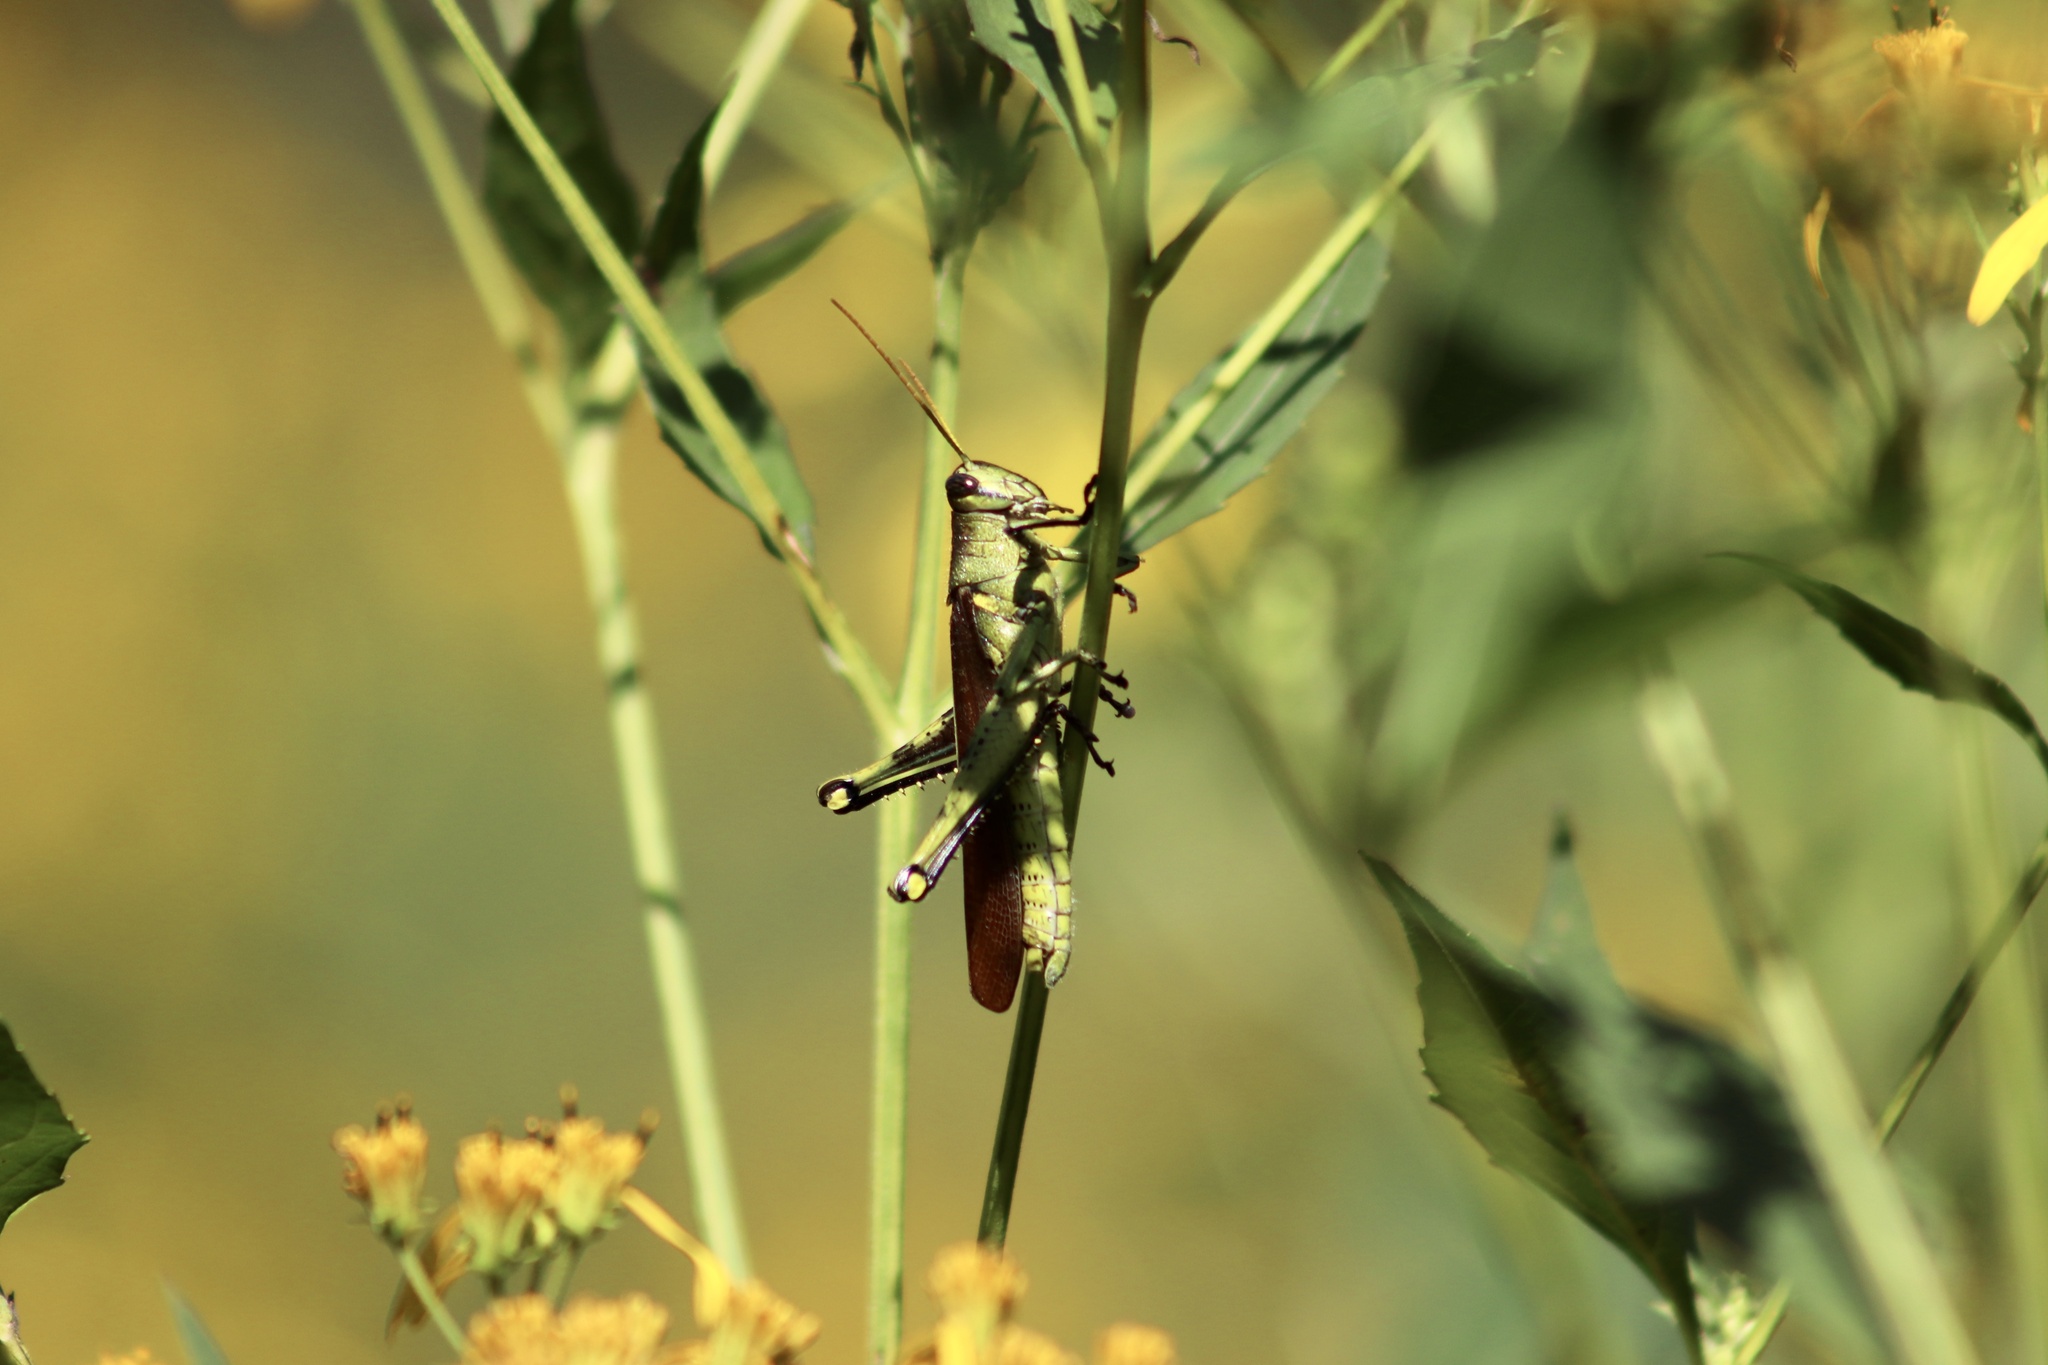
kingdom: Animalia
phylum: Arthropoda
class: Insecta
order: Orthoptera
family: Acrididae
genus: Schistocerca
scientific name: Schistocerca obscura
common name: Obscure bird grasshopper
